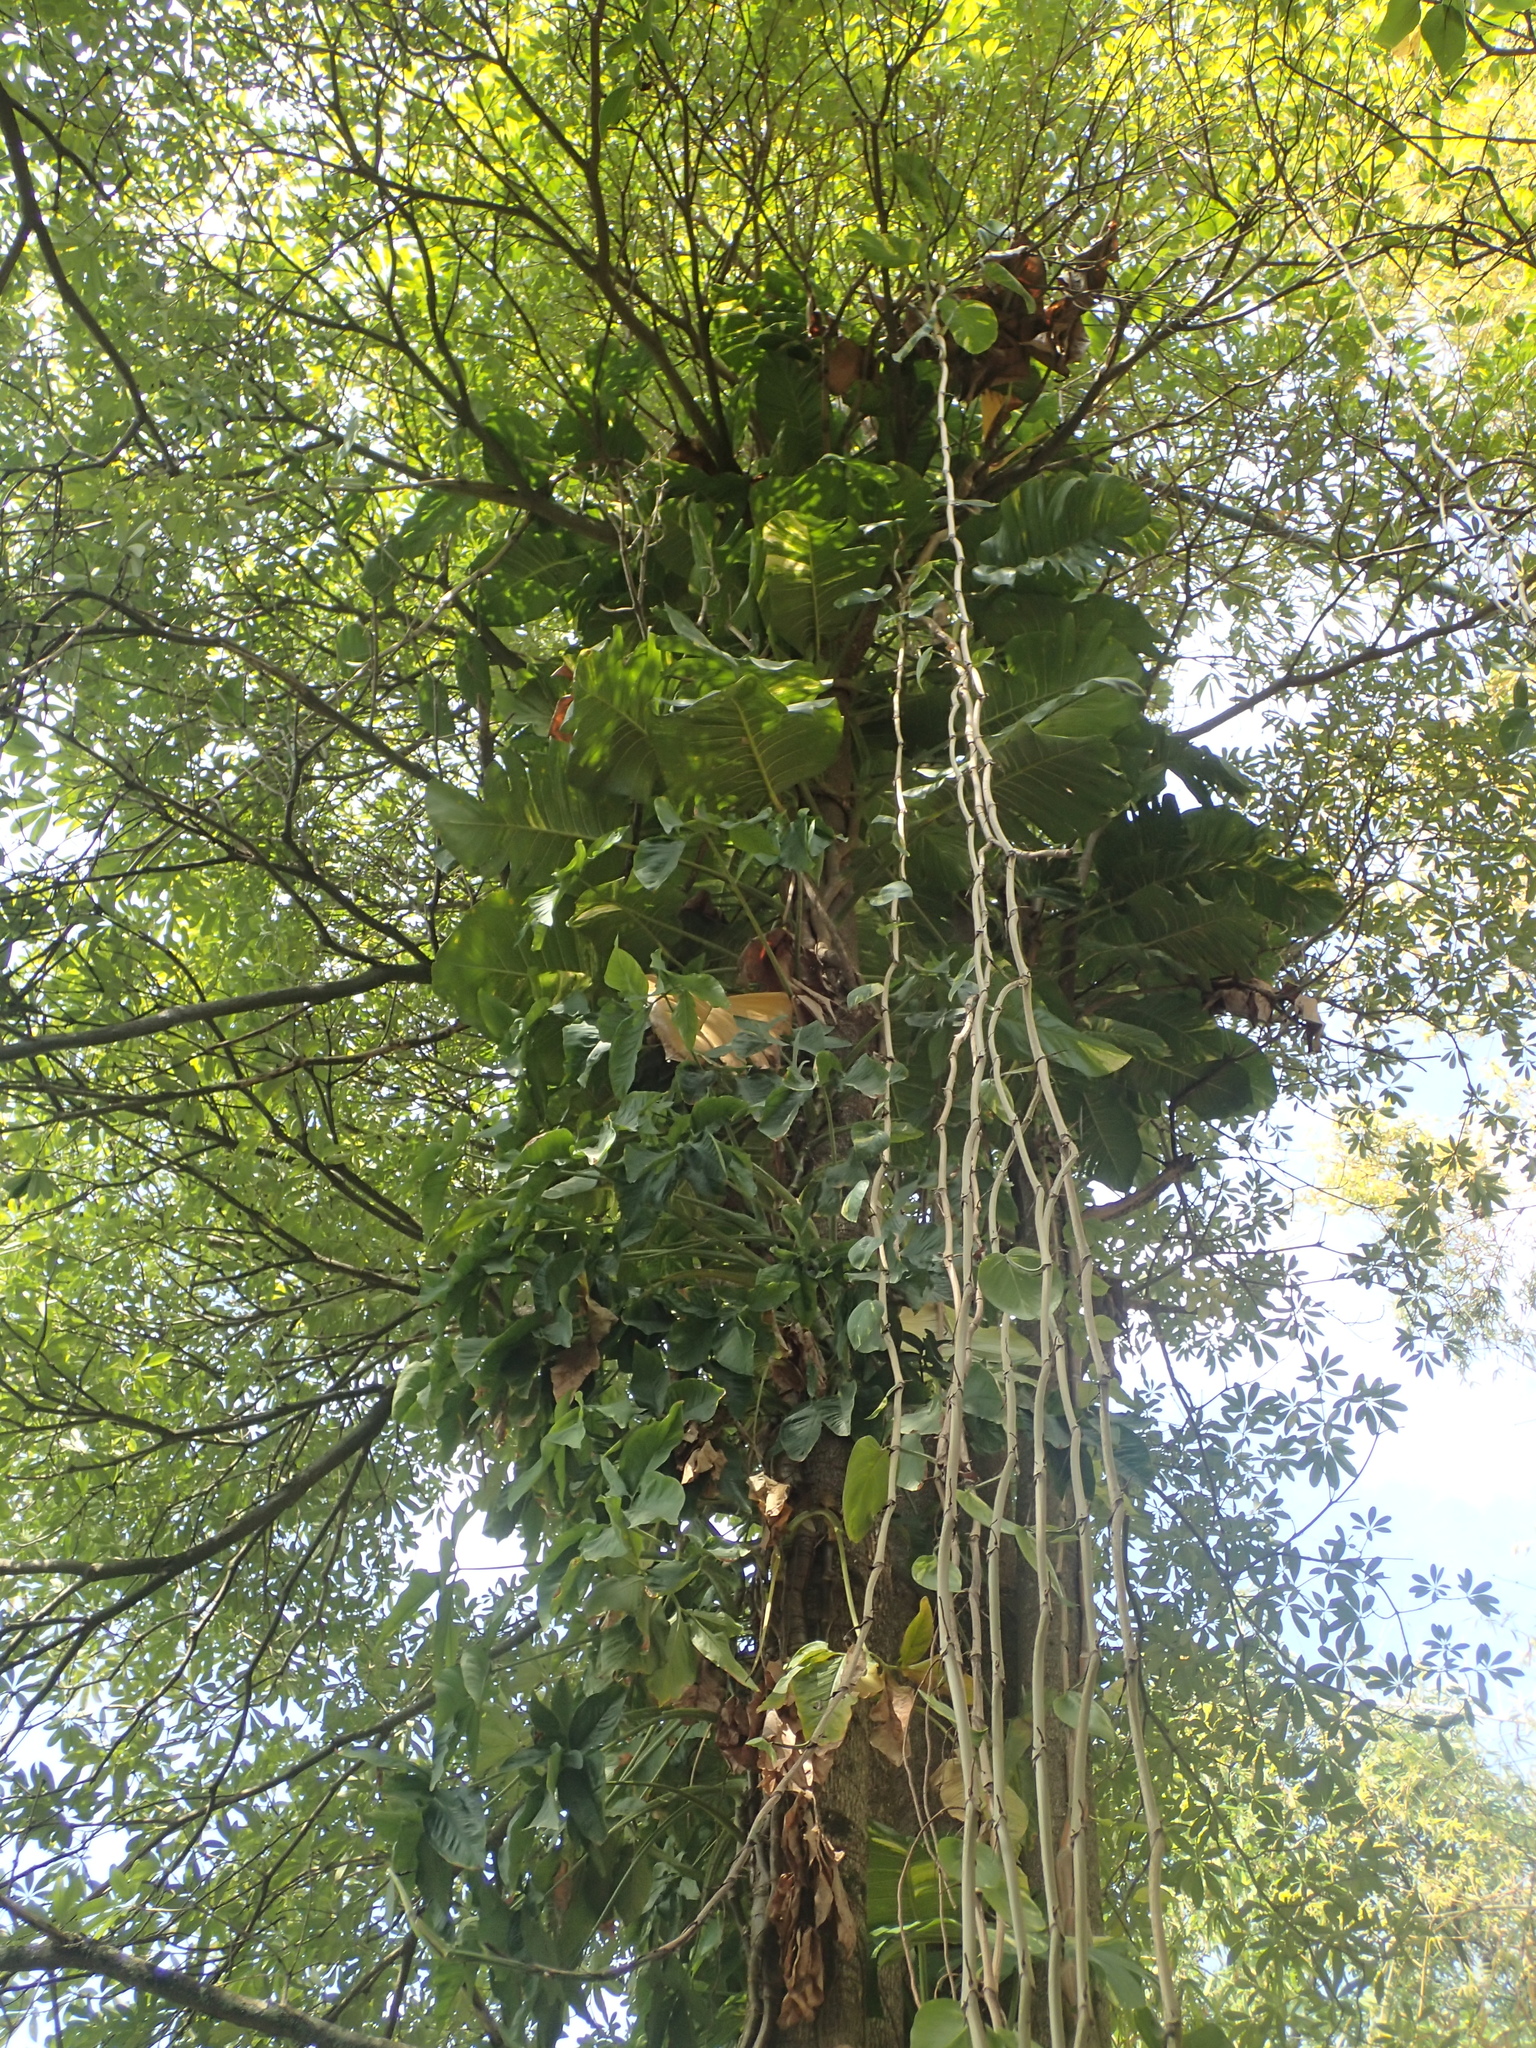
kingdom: Plantae
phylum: Tracheophyta
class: Liliopsida
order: Alismatales
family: Araceae
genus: Epipremnum
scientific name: Epipremnum aureum
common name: Golden hunter's-robe
